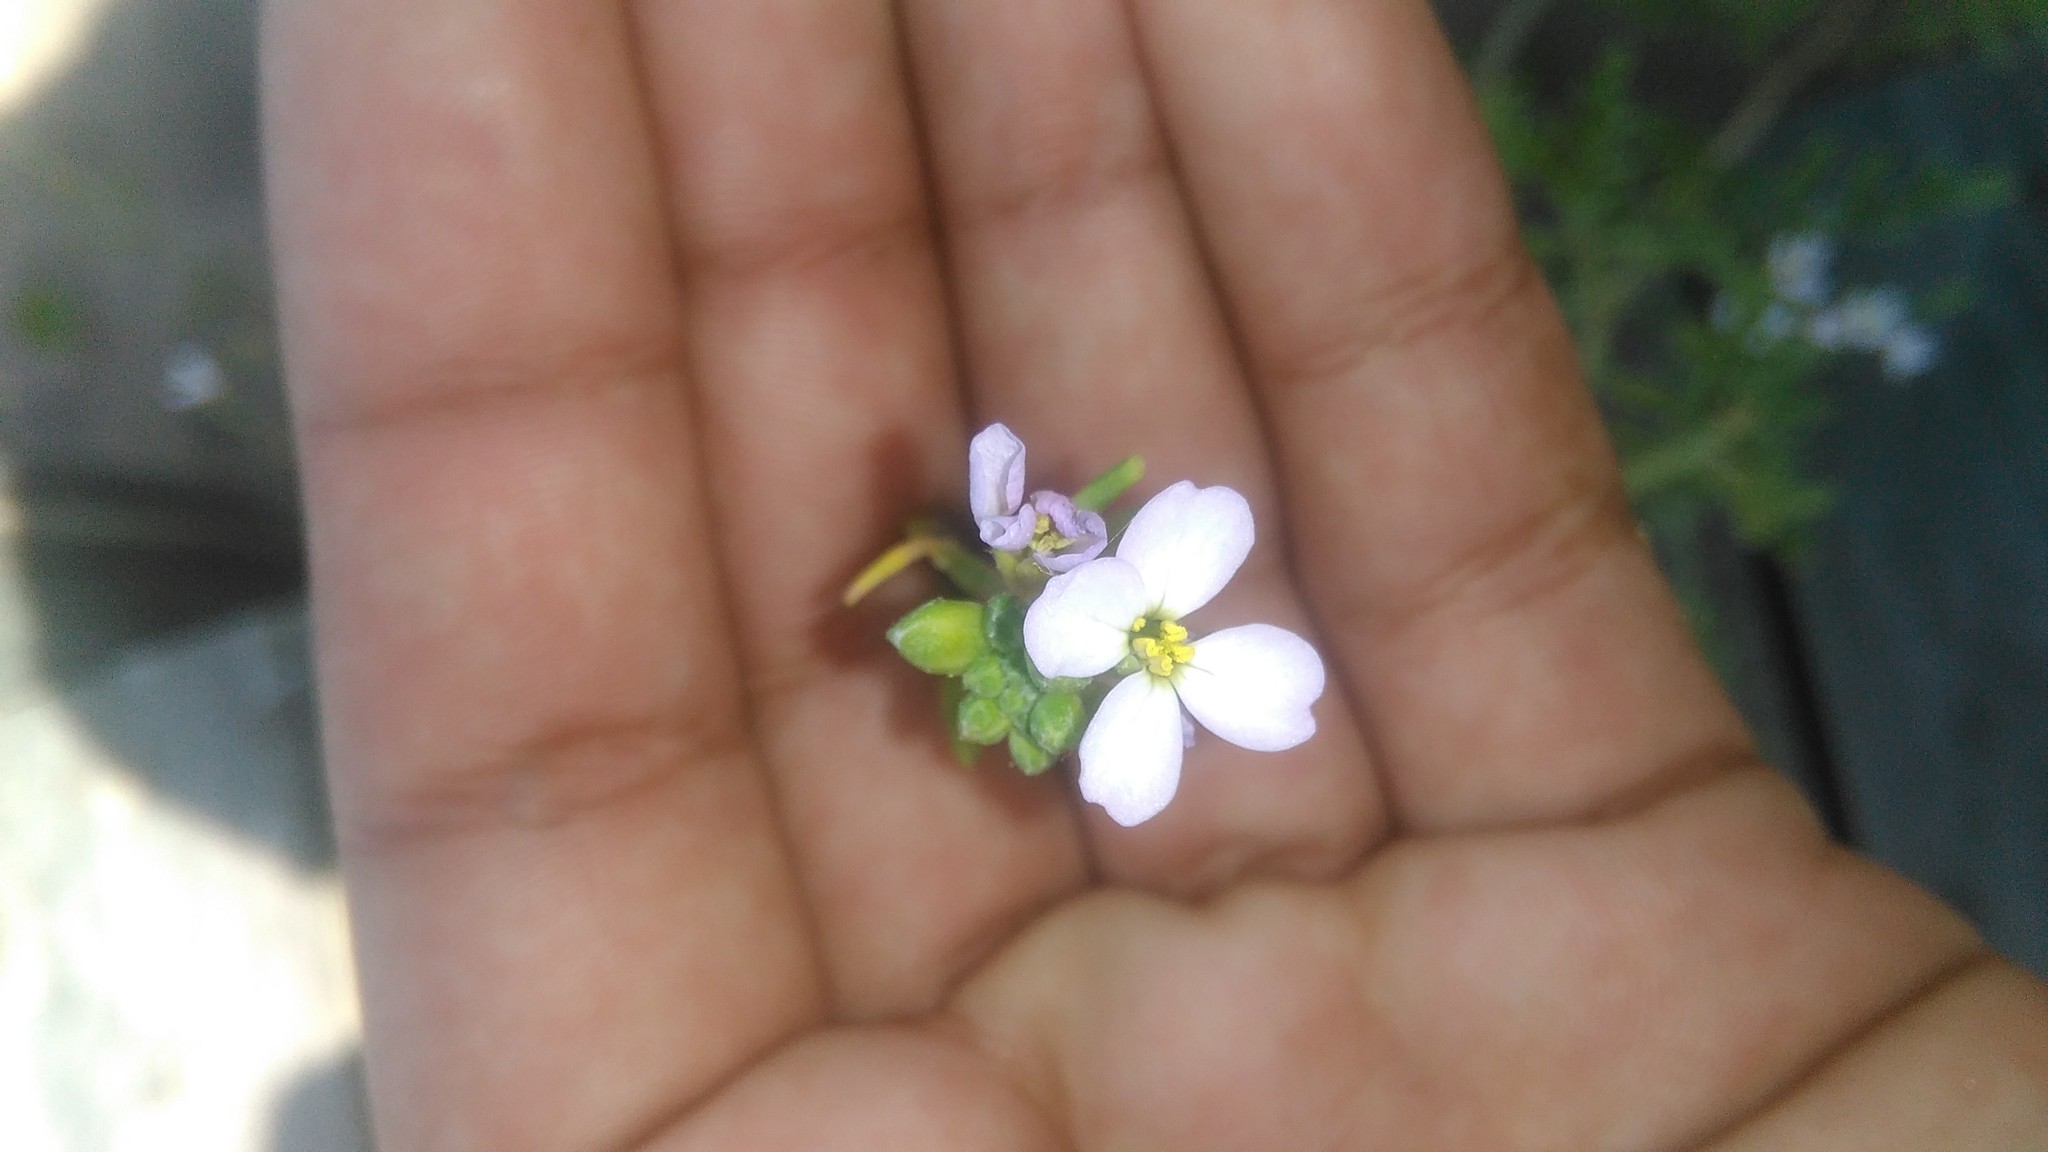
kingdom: Plantae
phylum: Tracheophyta
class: Magnoliopsida
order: Brassicales
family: Brassicaceae
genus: Cakile
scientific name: Cakile maritima
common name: Sea rocket
